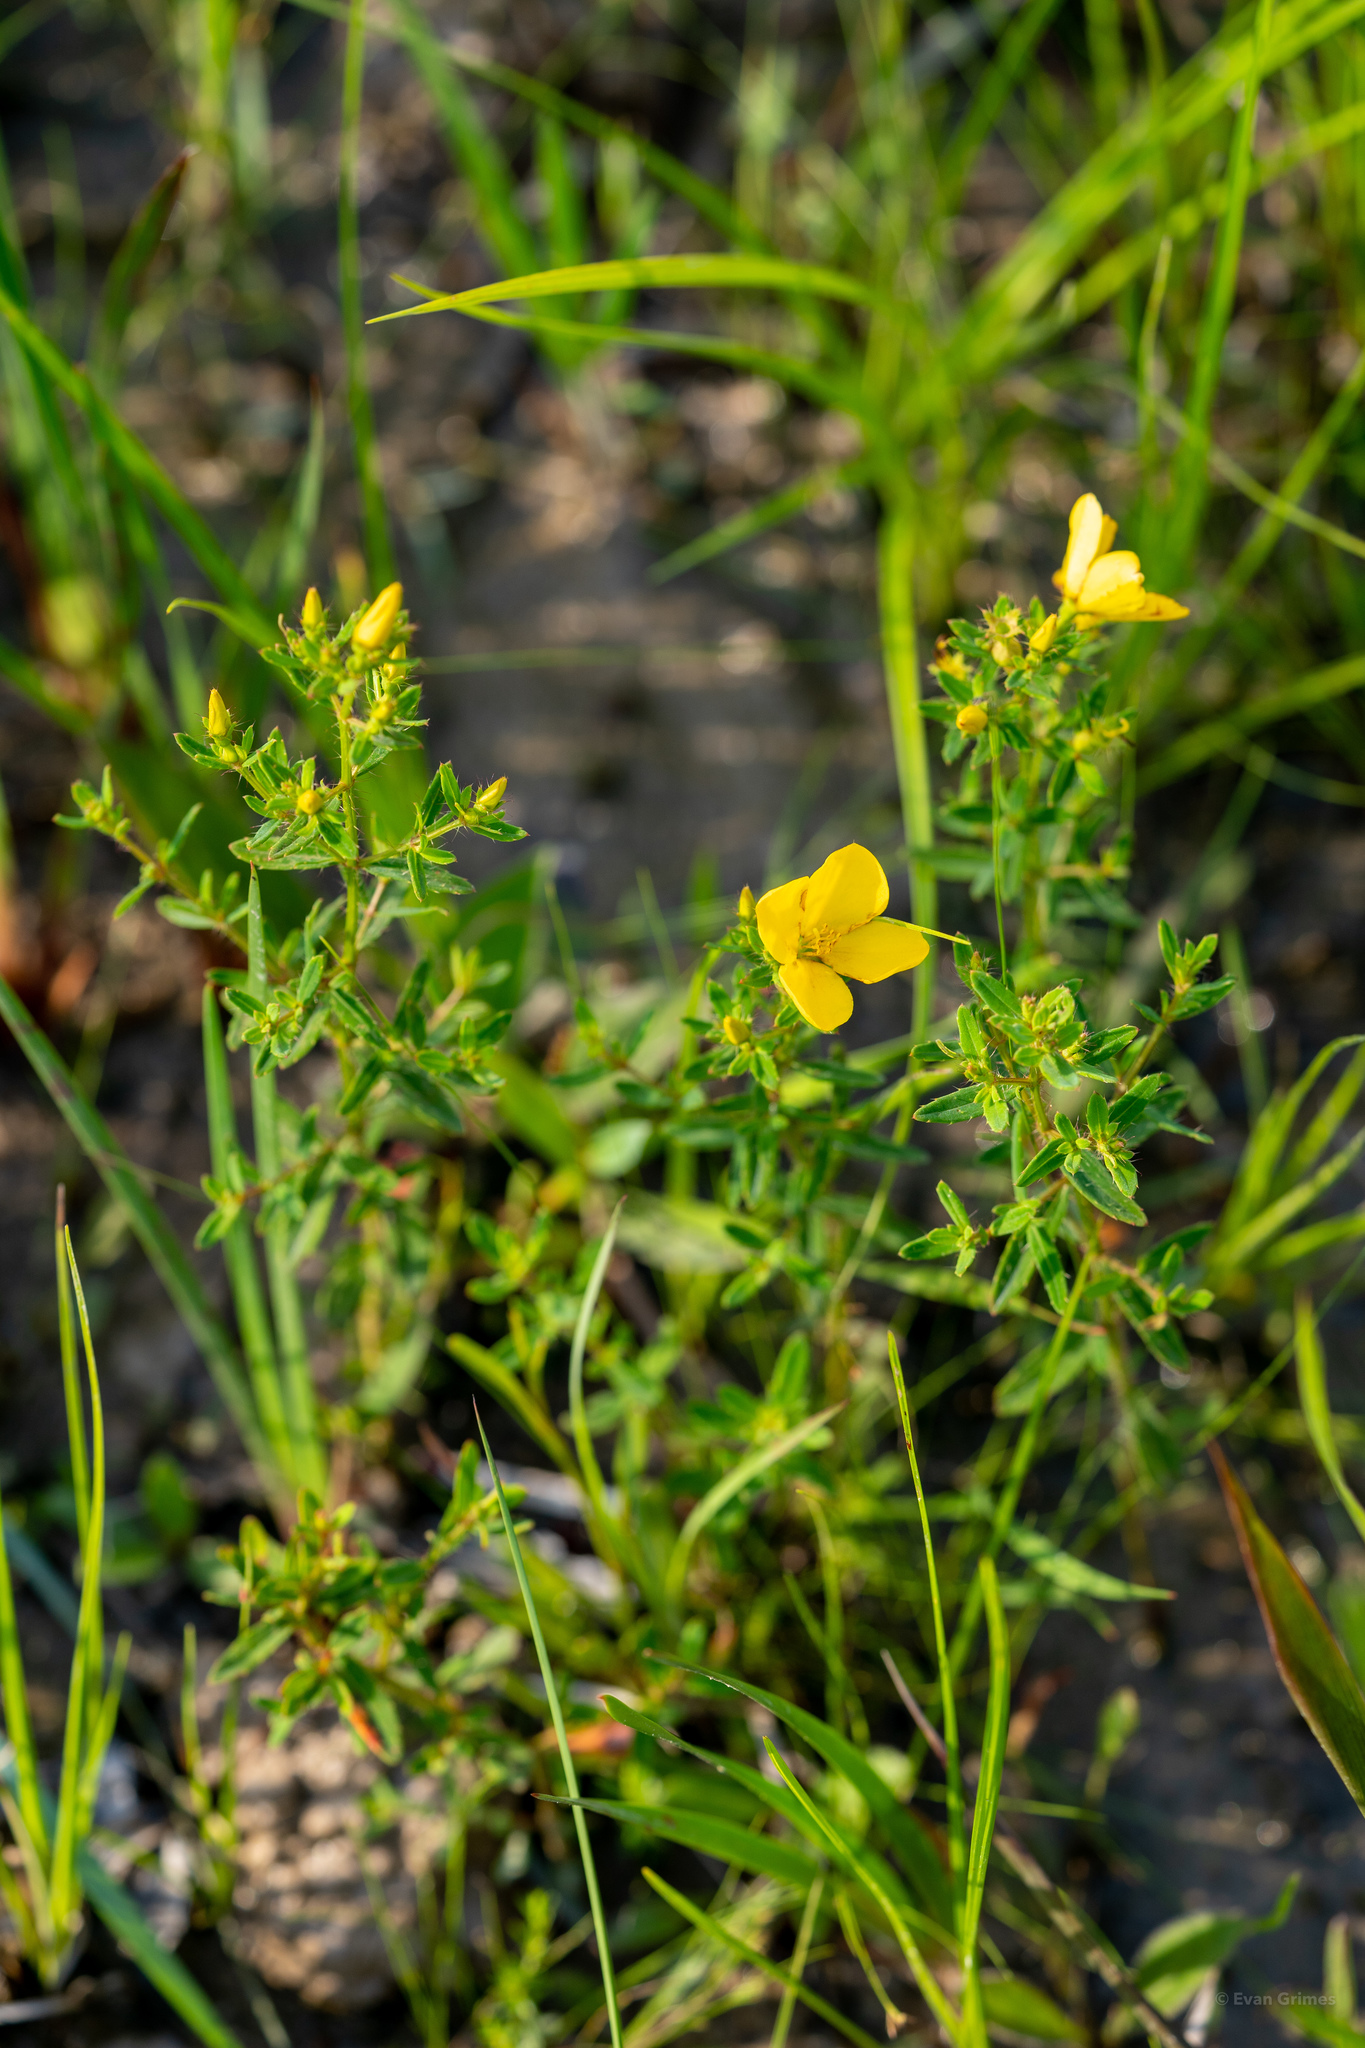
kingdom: Plantae
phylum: Tracheophyta
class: Magnoliopsida
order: Myrtales
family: Melastomataceae
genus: Rhexia
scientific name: Rhexia lutea
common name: Golden meadow-beauty
